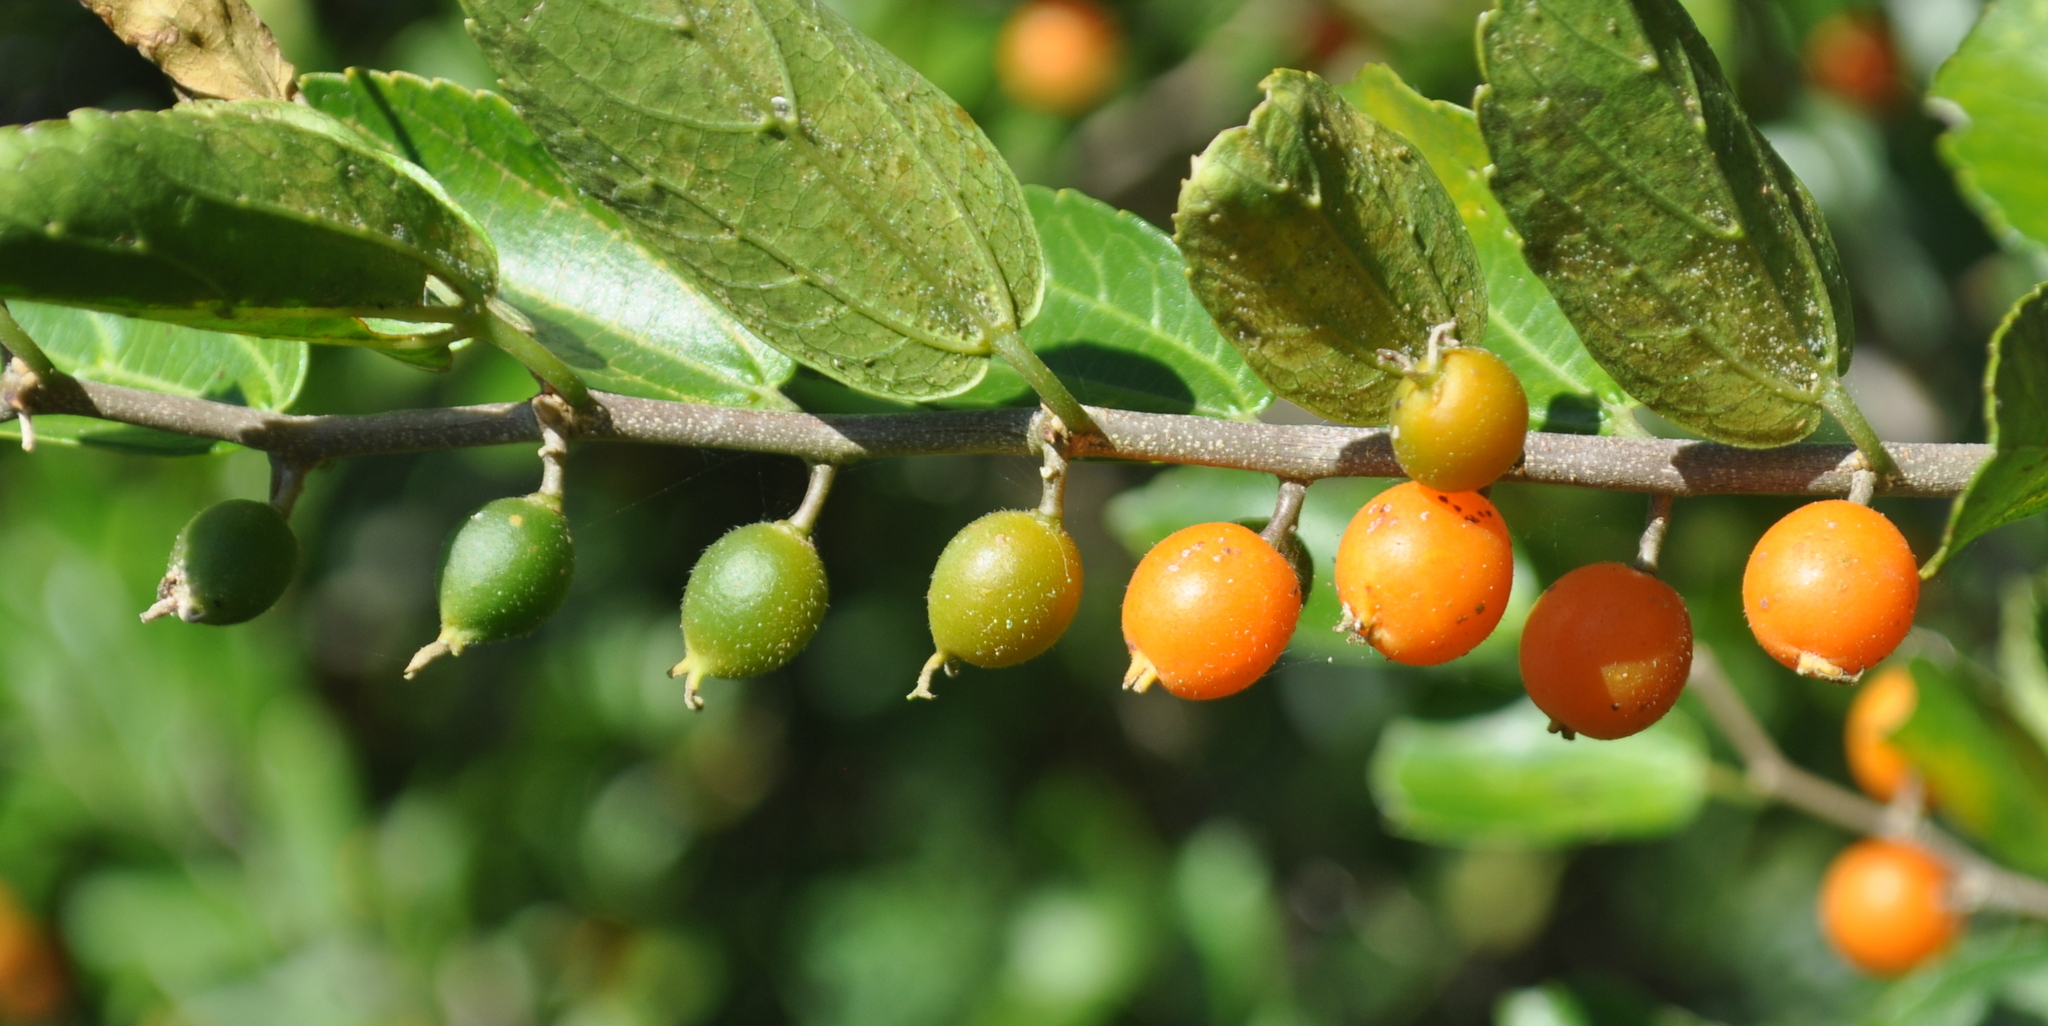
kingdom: Plantae
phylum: Tracheophyta
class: Magnoliopsida
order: Rosales
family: Cannabaceae
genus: Celtis
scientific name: Celtis spinosa
